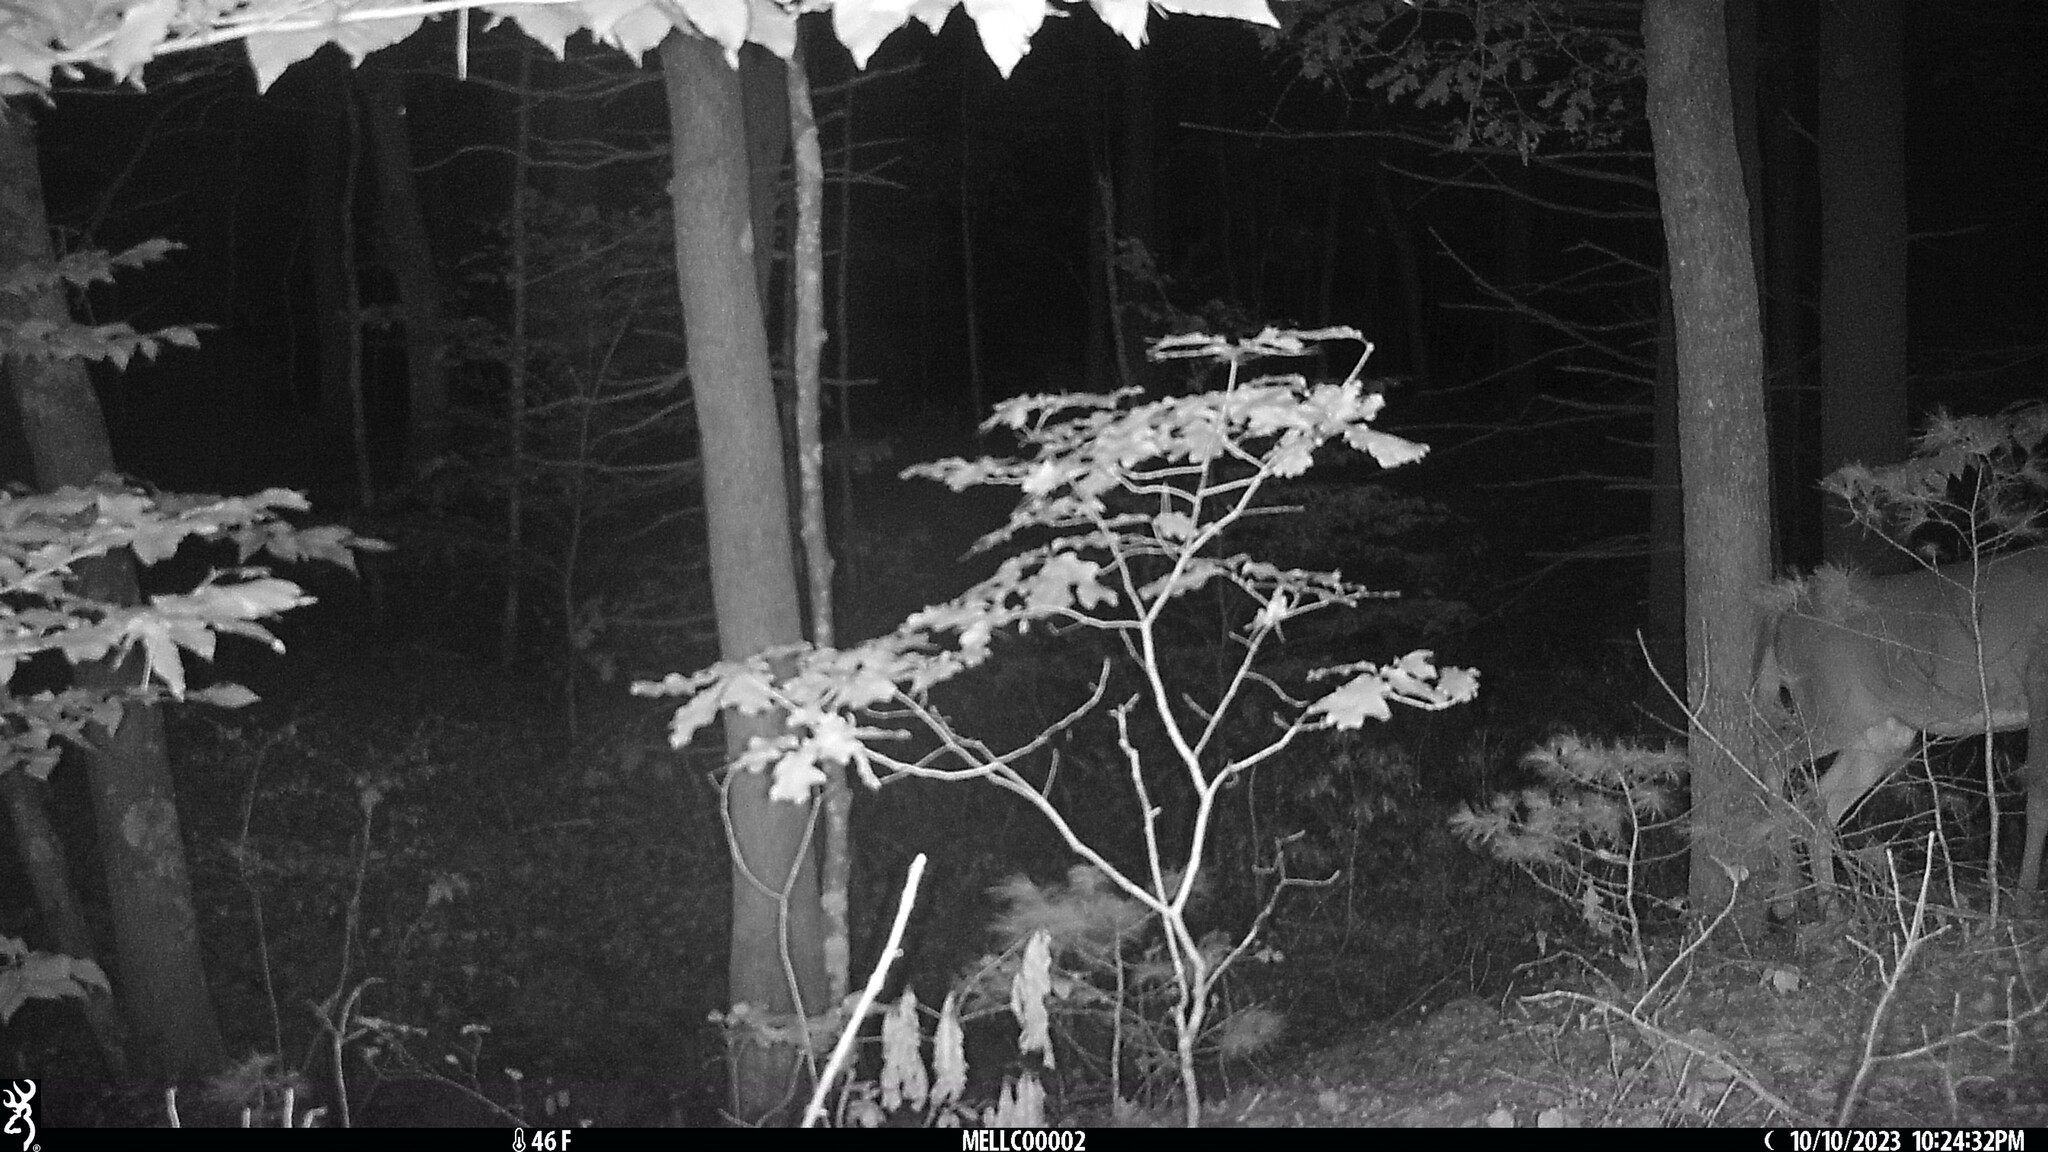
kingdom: Animalia
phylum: Chordata
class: Mammalia
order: Artiodactyla
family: Cervidae
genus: Odocoileus
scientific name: Odocoileus virginianus
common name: White-tailed deer
